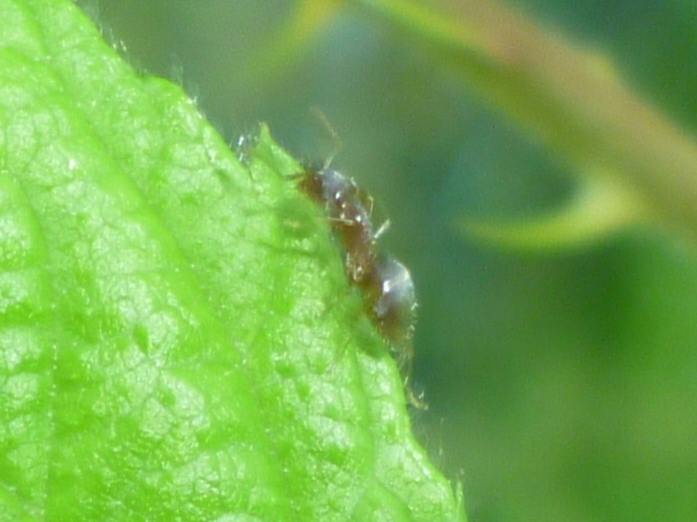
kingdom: Animalia
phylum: Arthropoda
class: Insecta
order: Hymenoptera
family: Formicidae
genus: Lasius
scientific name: Lasius
